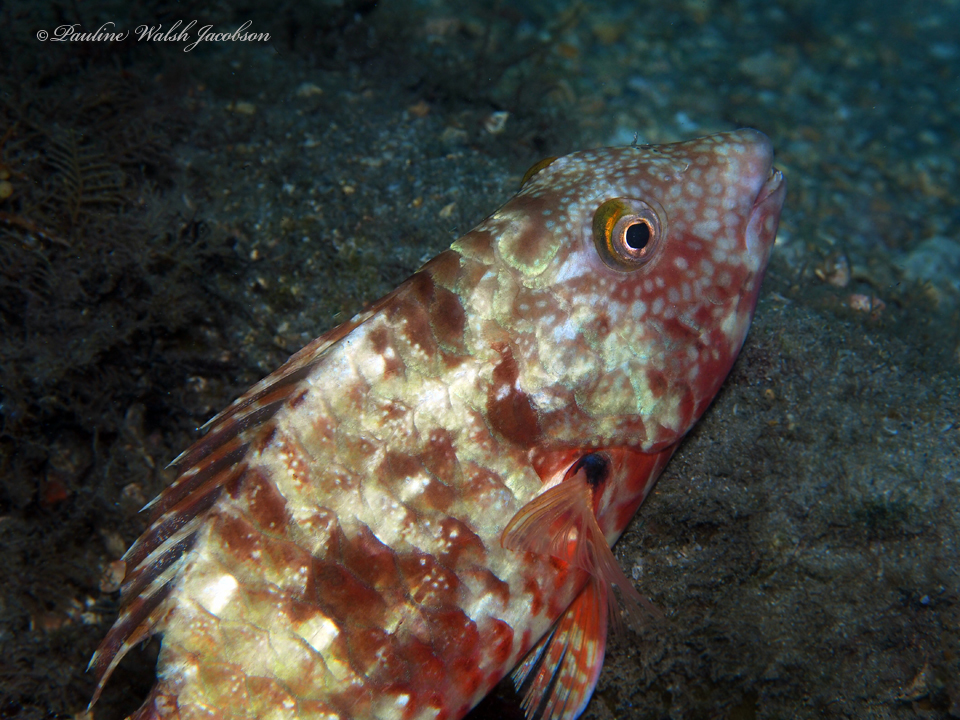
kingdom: Animalia
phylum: Chordata
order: Perciformes
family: Scaridae
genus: Sparisoma
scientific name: Sparisoma chrysopterum
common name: Redtail parrotfish
